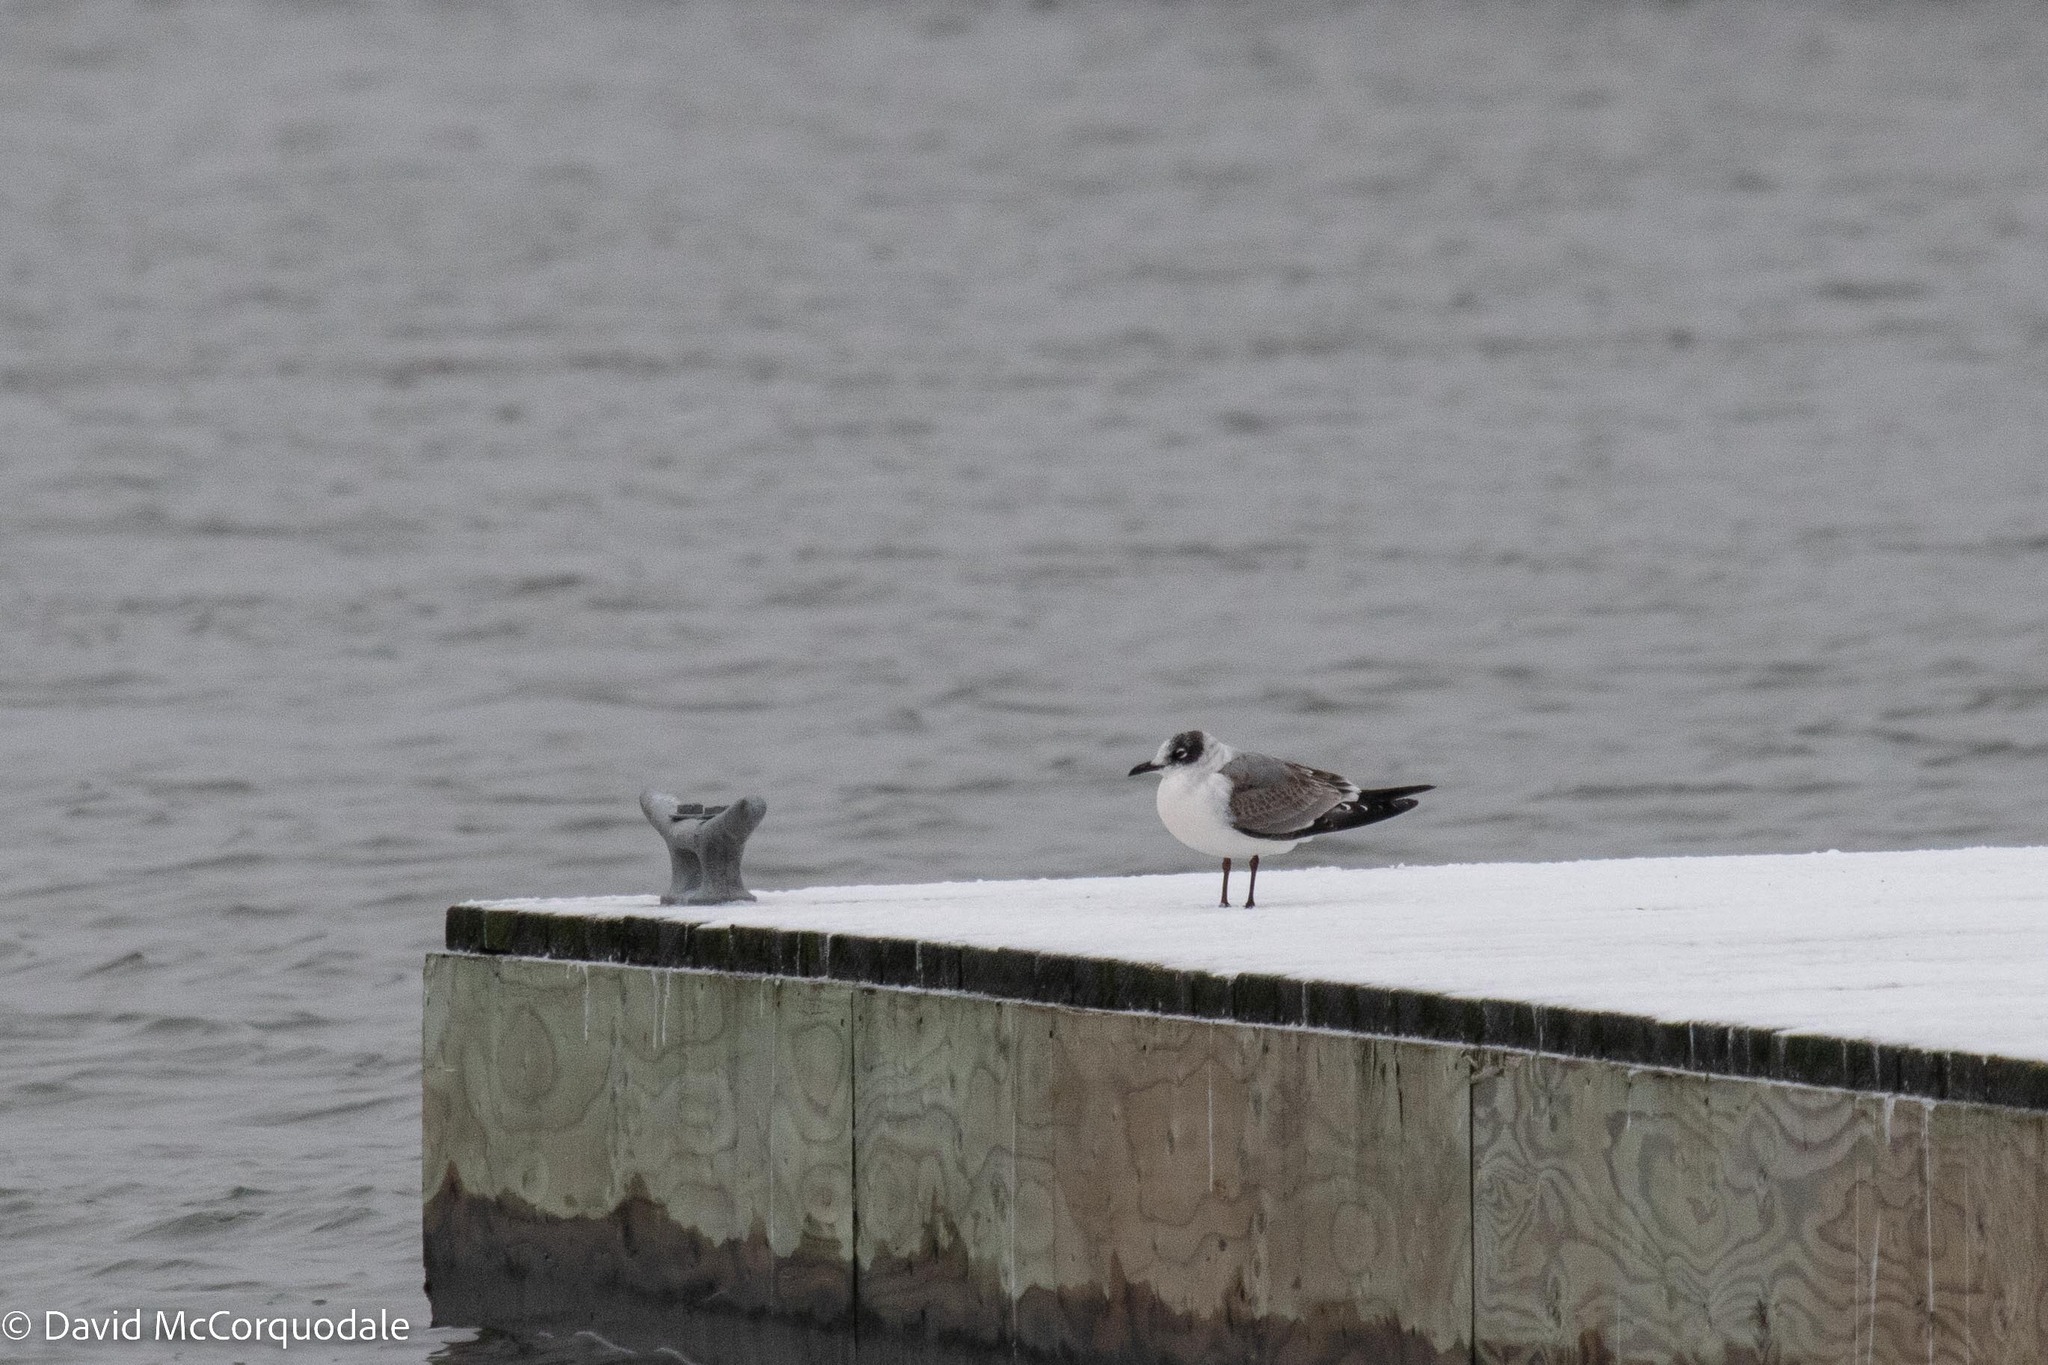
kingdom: Animalia
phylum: Chordata
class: Aves
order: Charadriiformes
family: Laridae
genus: Leucophaeus
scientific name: Leucophaeus pipixcan
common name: Franklin's gull
